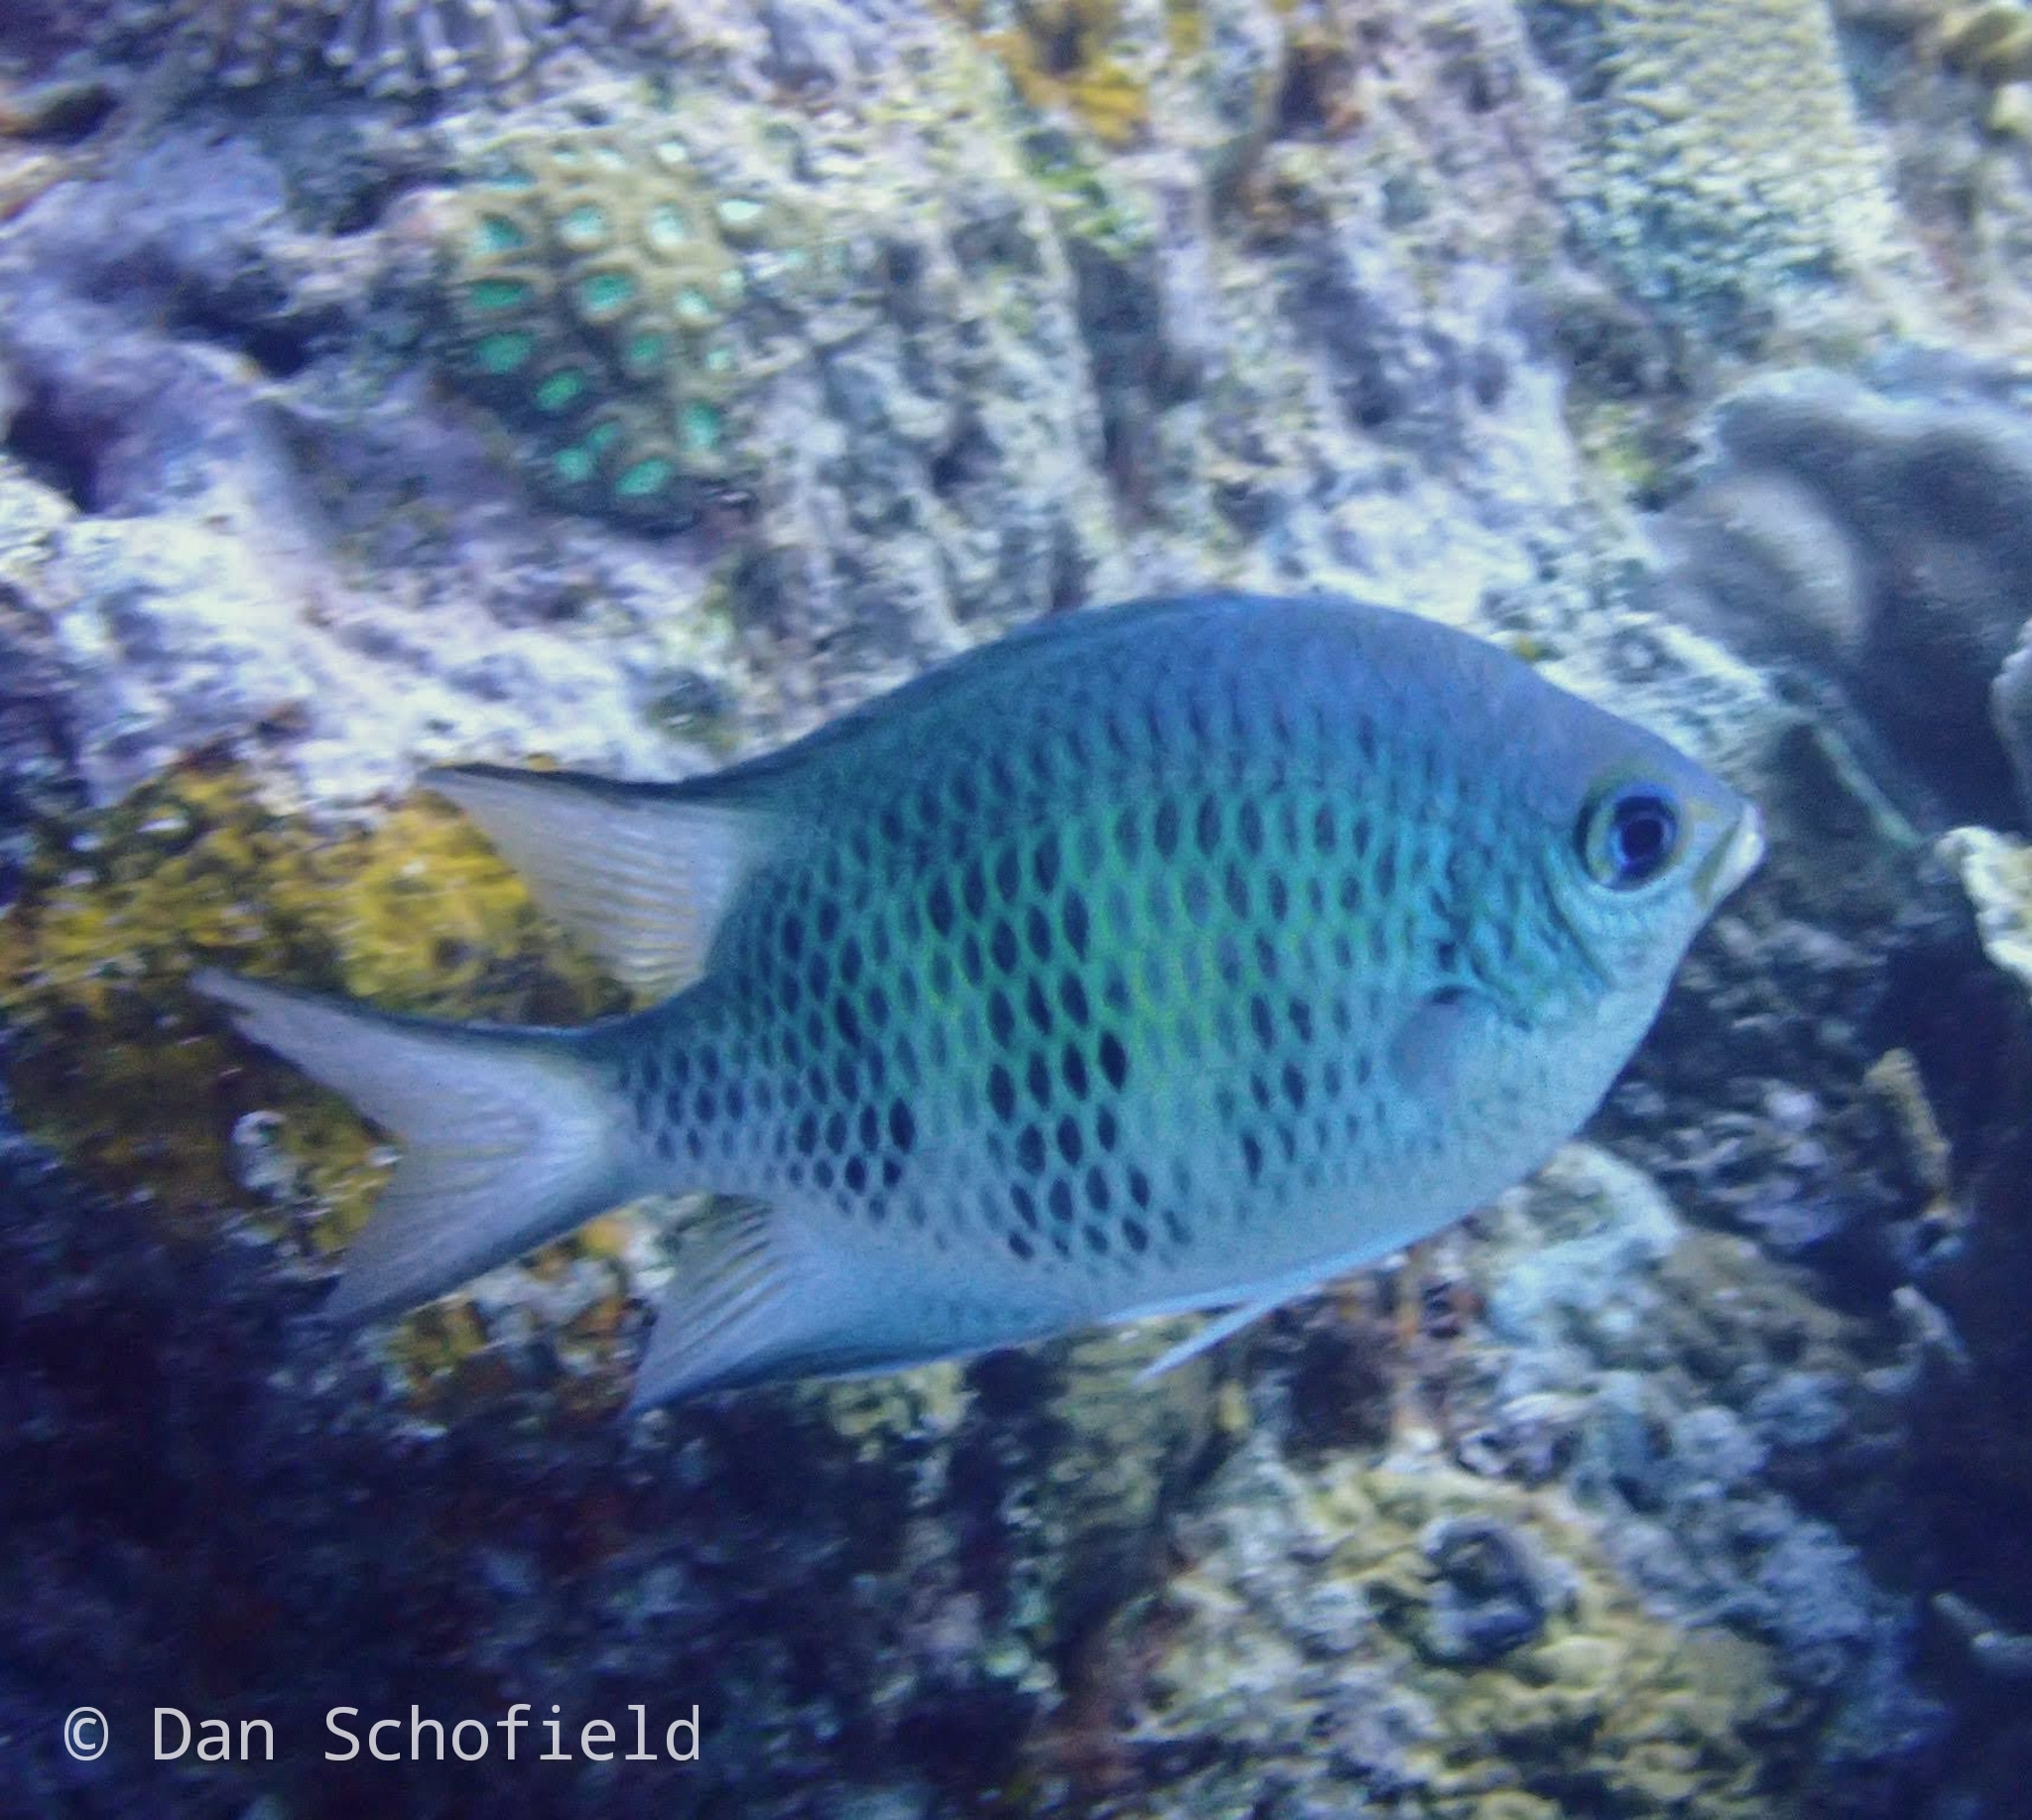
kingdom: Animalia
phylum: Chordata
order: Perciformes
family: Pomacentridae
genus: Amblyglyphidodon
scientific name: Amblyglyphidodon curacao
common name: Staghorn damsel
